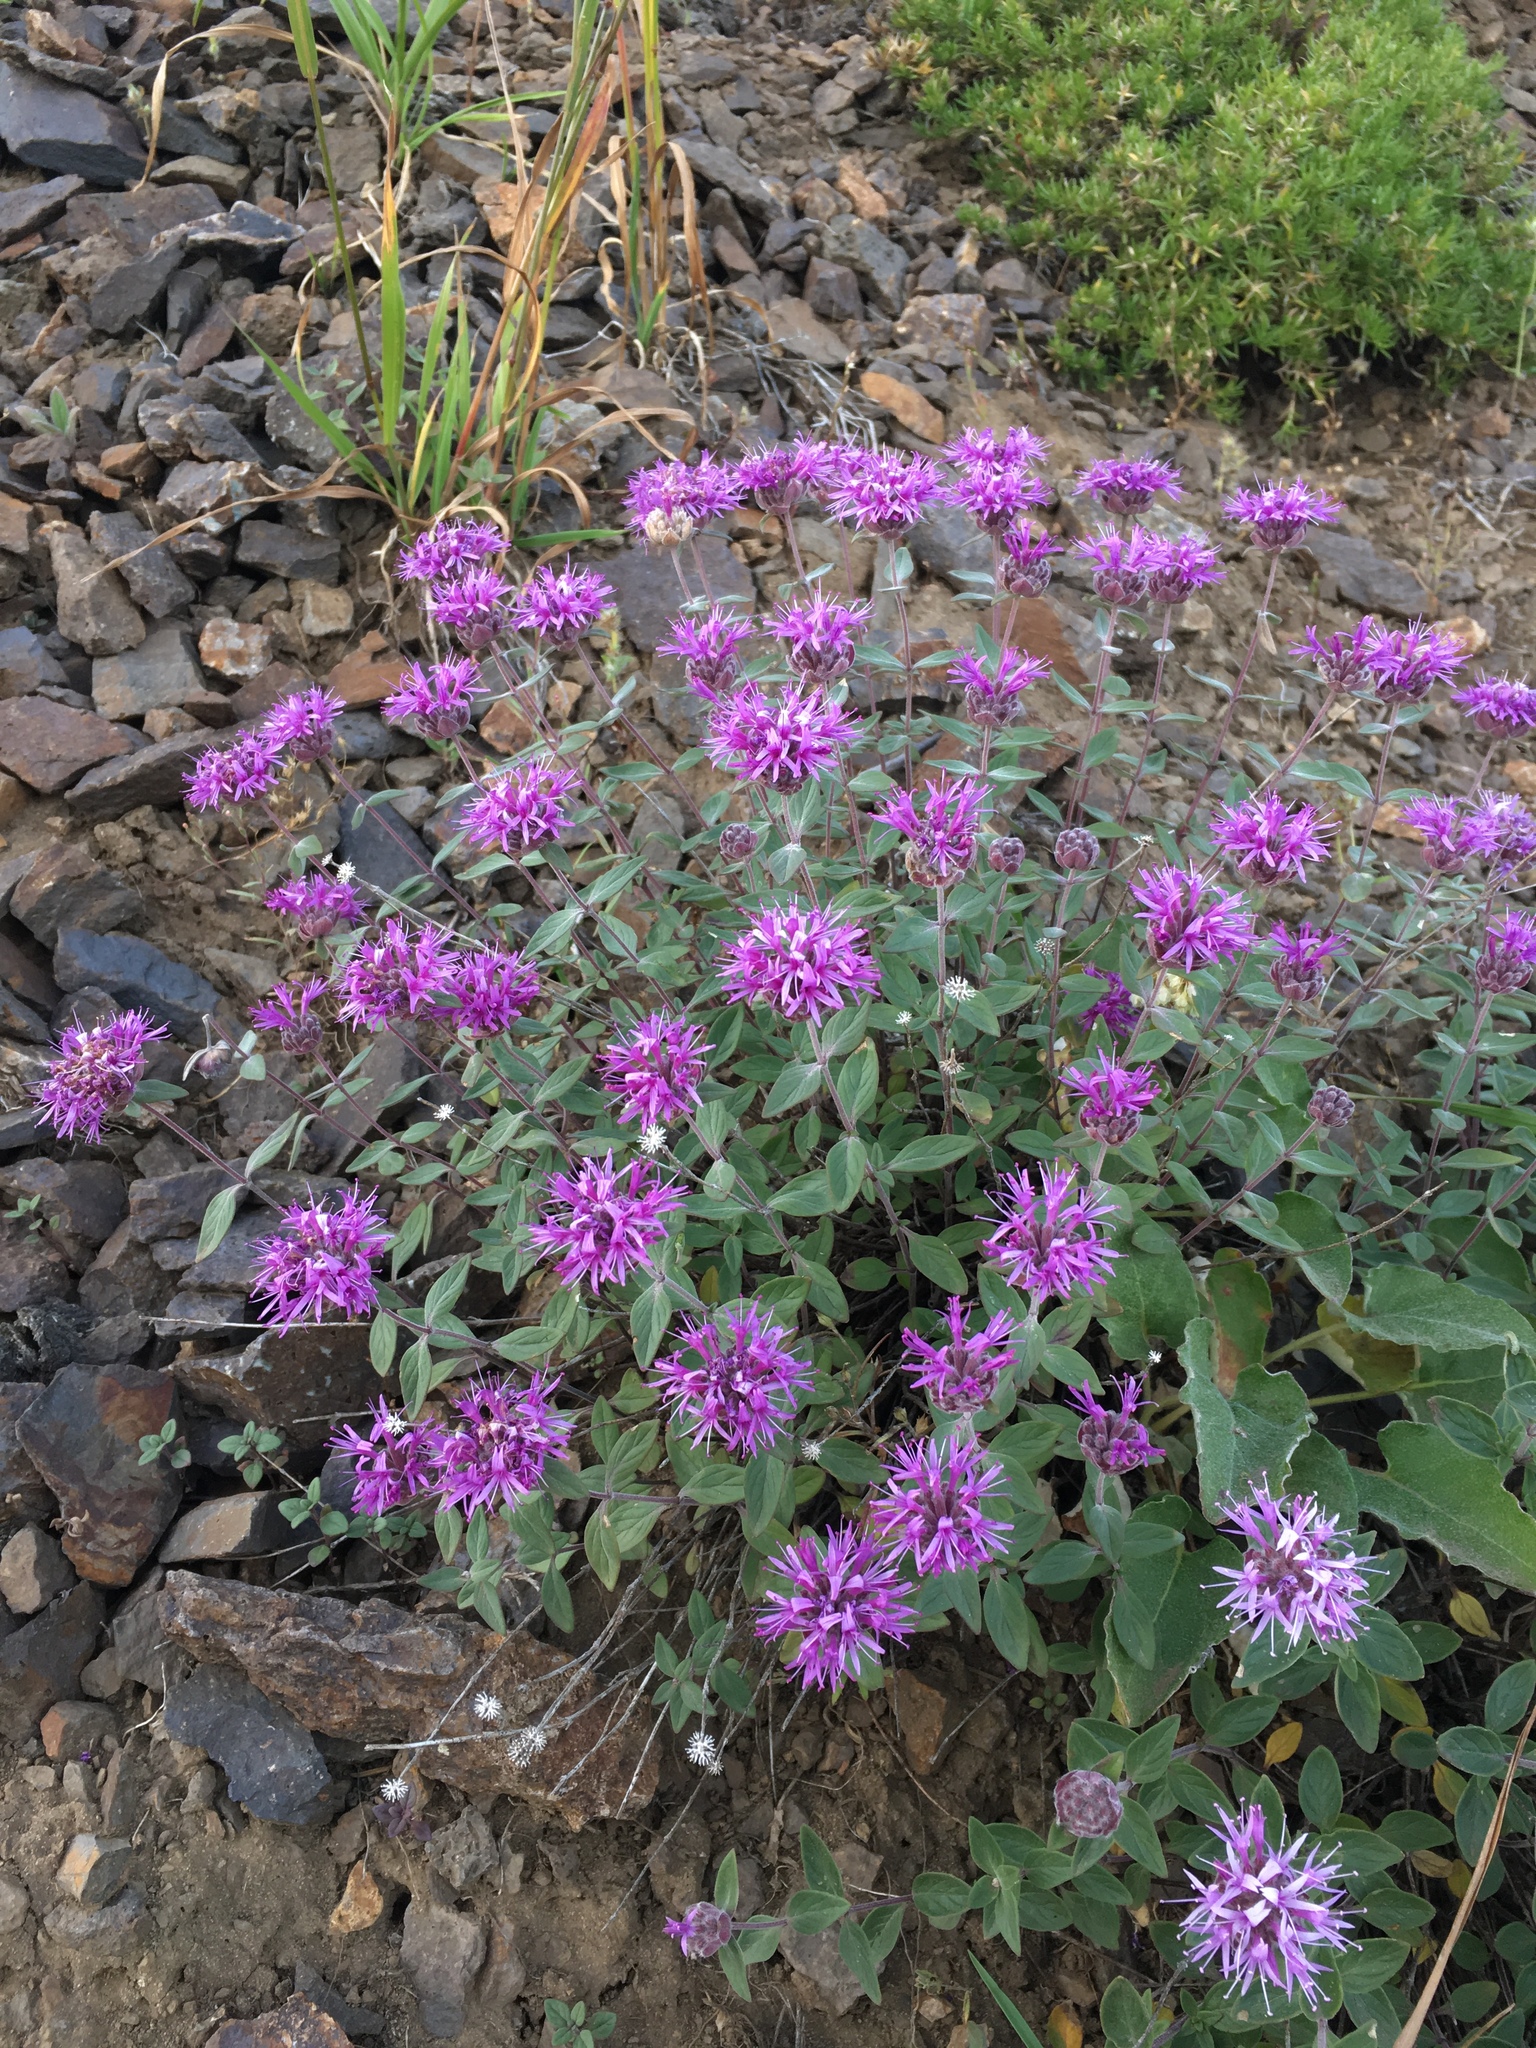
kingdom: Plantae
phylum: Tracheophyta
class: Magnoliopsida
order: Lamiales
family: Lamiaceae
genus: Monardella
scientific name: Monardella odoratissima
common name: Pacific monardella
